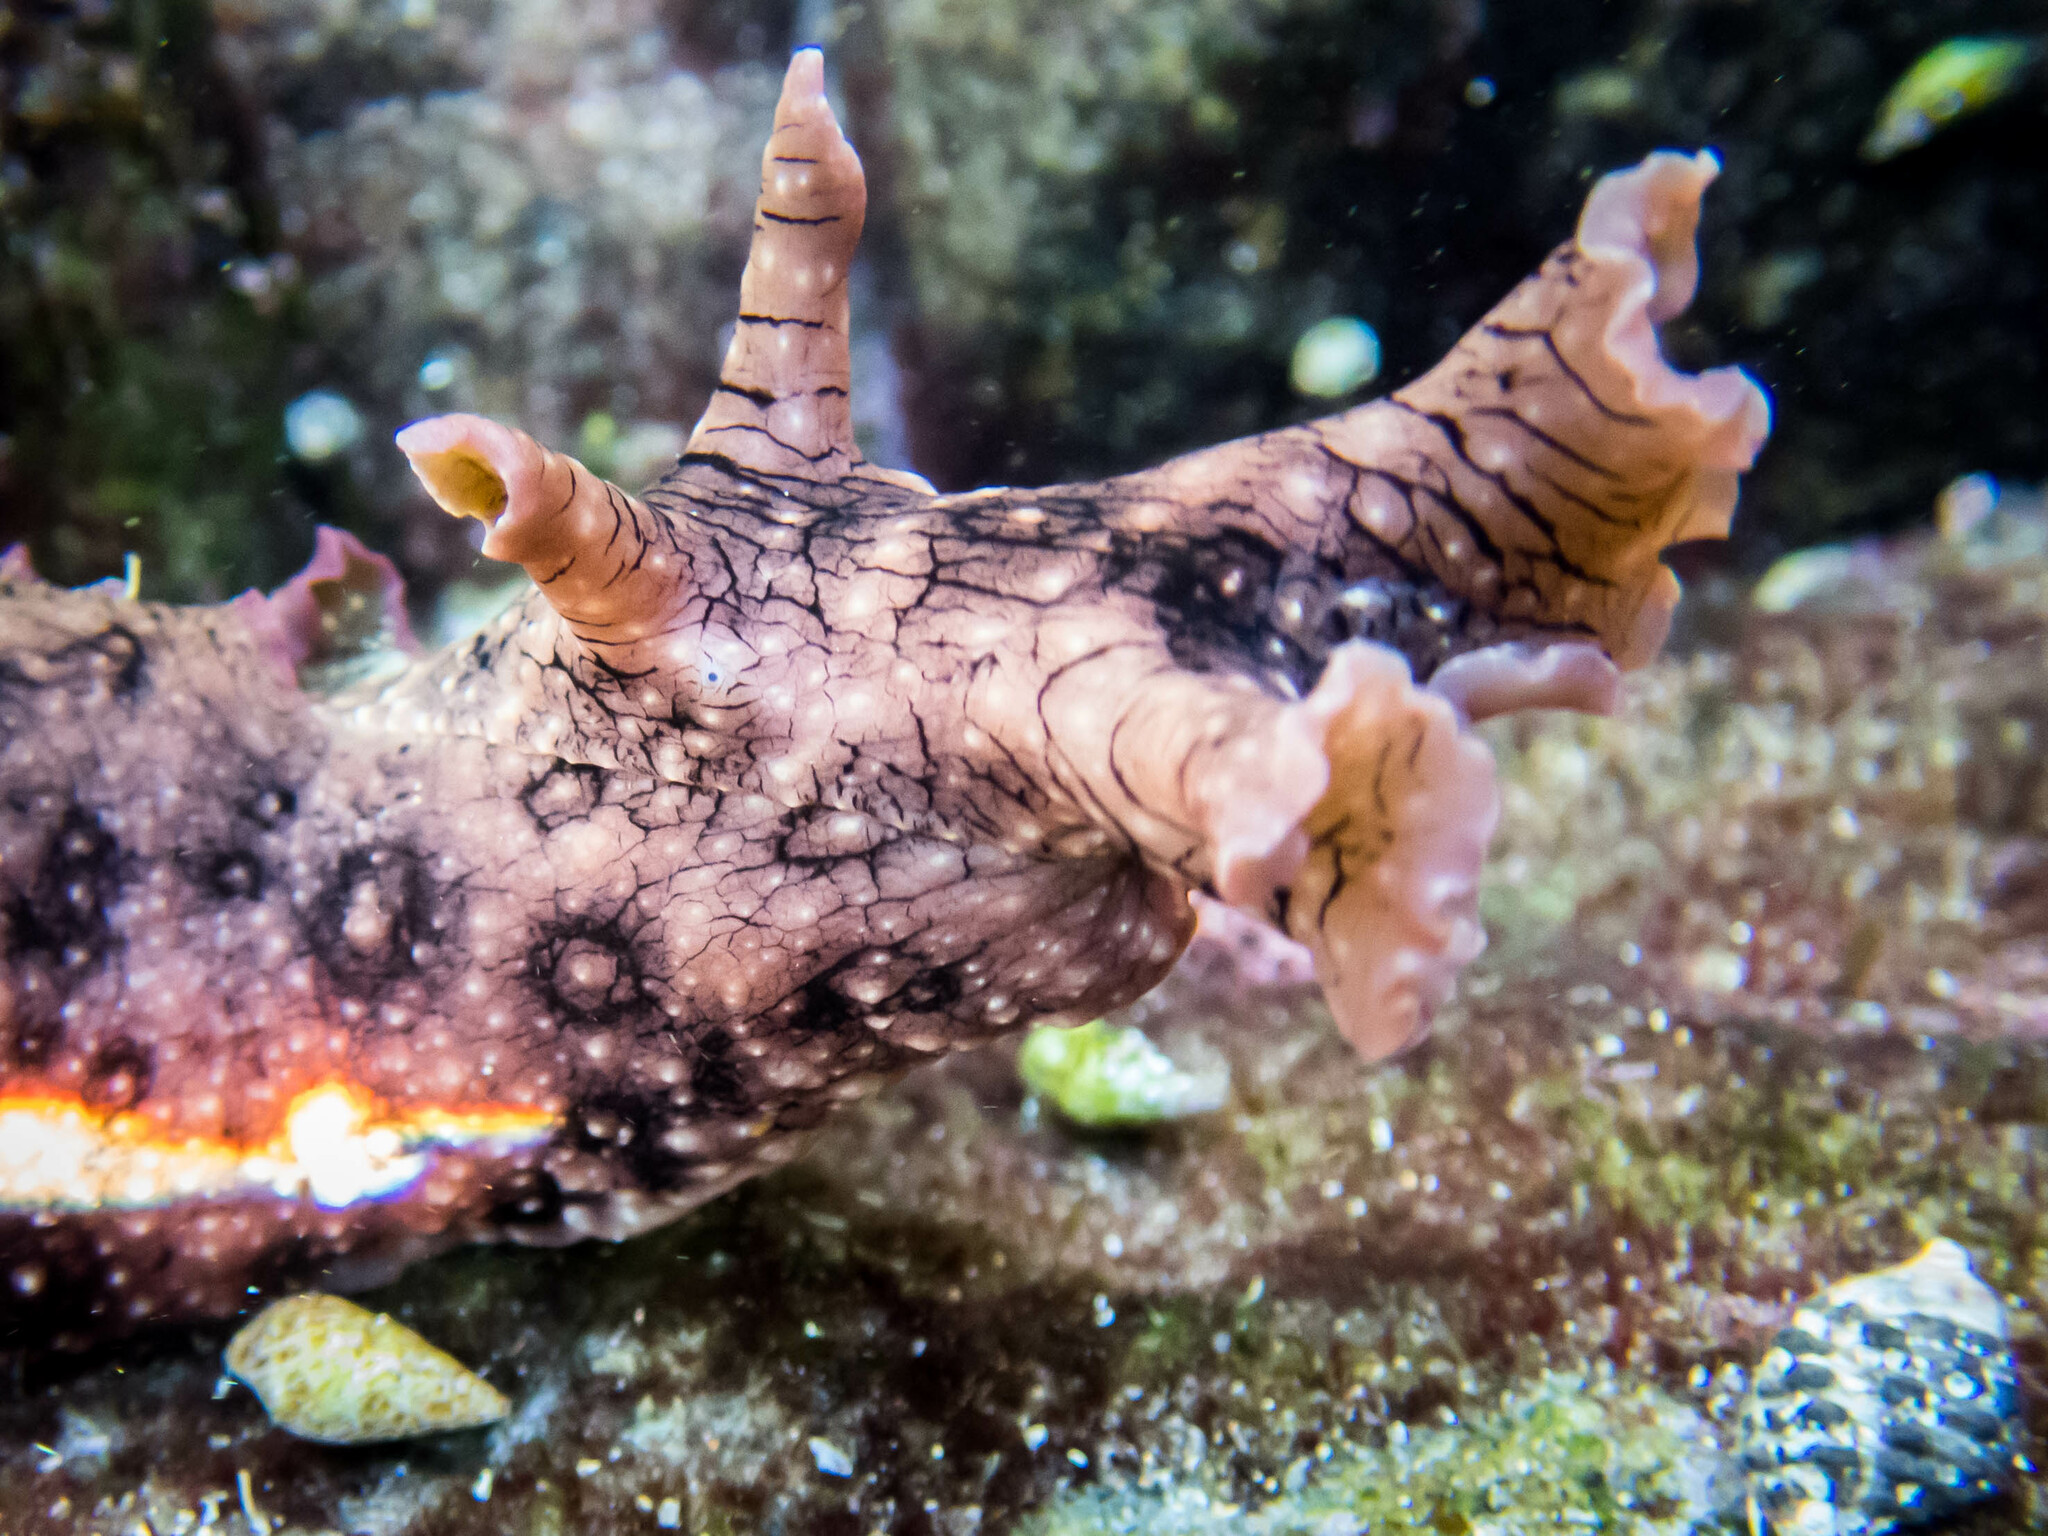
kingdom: Animalia
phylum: Mollusca
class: Gastropoda
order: Aplysiida
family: Aplysiidae
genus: Aplysia
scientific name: Aplysia argus
